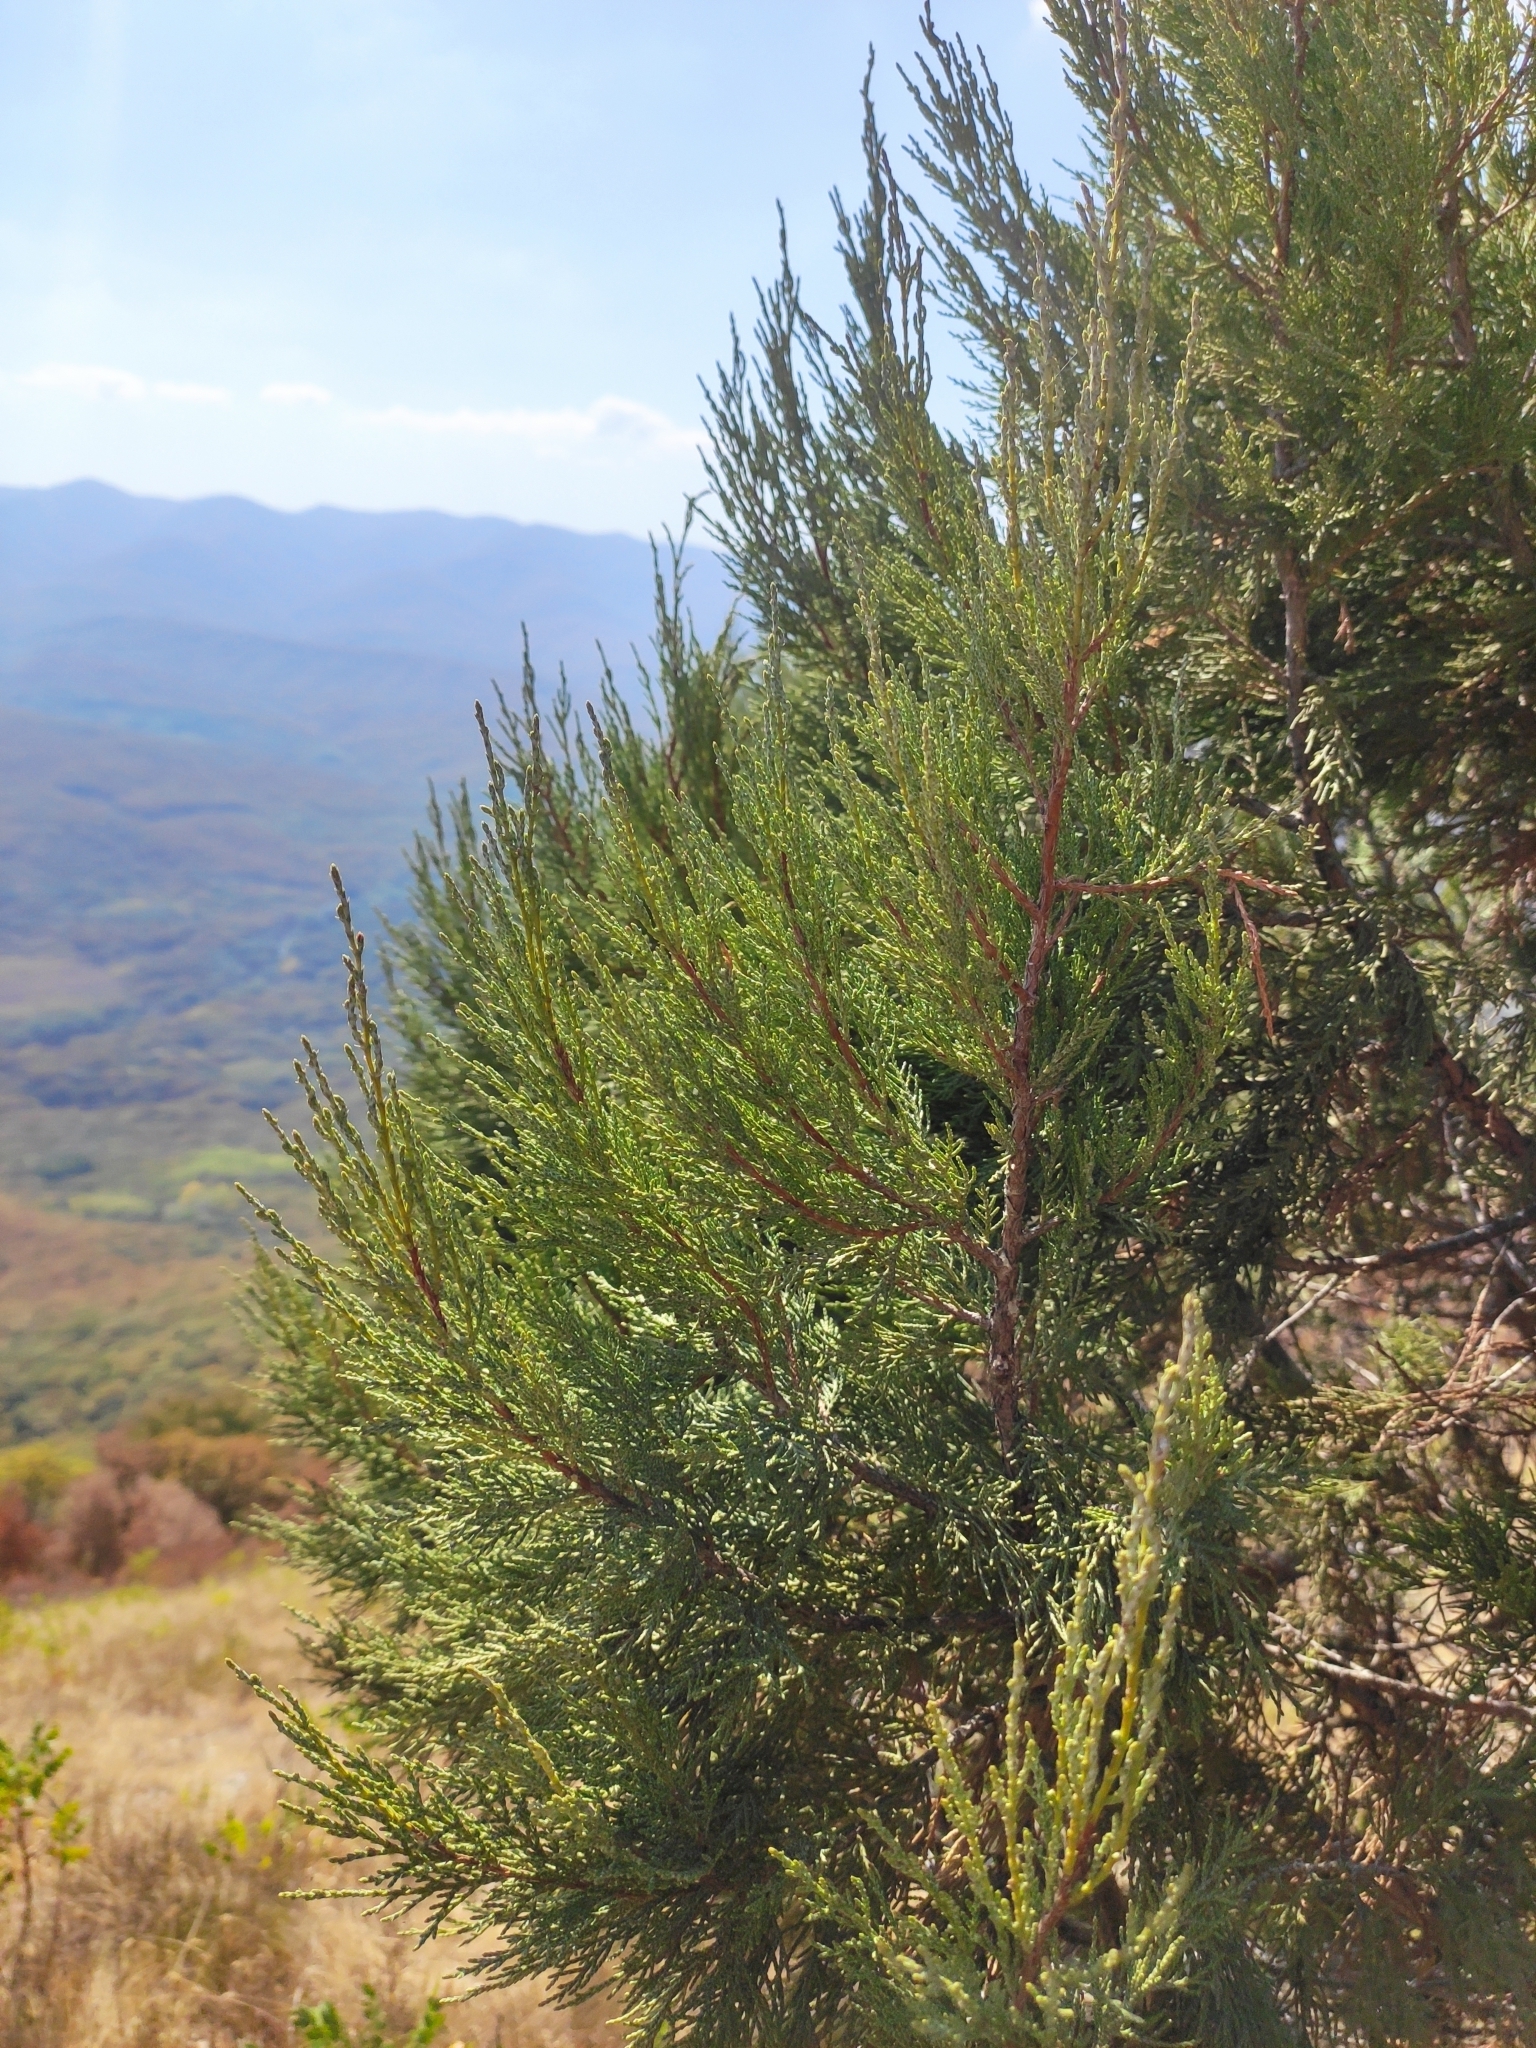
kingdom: Plantae
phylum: Tracheophyta
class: Pinopsida
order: Pinales
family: Cupressaceae
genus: Juniperus
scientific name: Juniperus excelsa
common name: Crimean juniper
